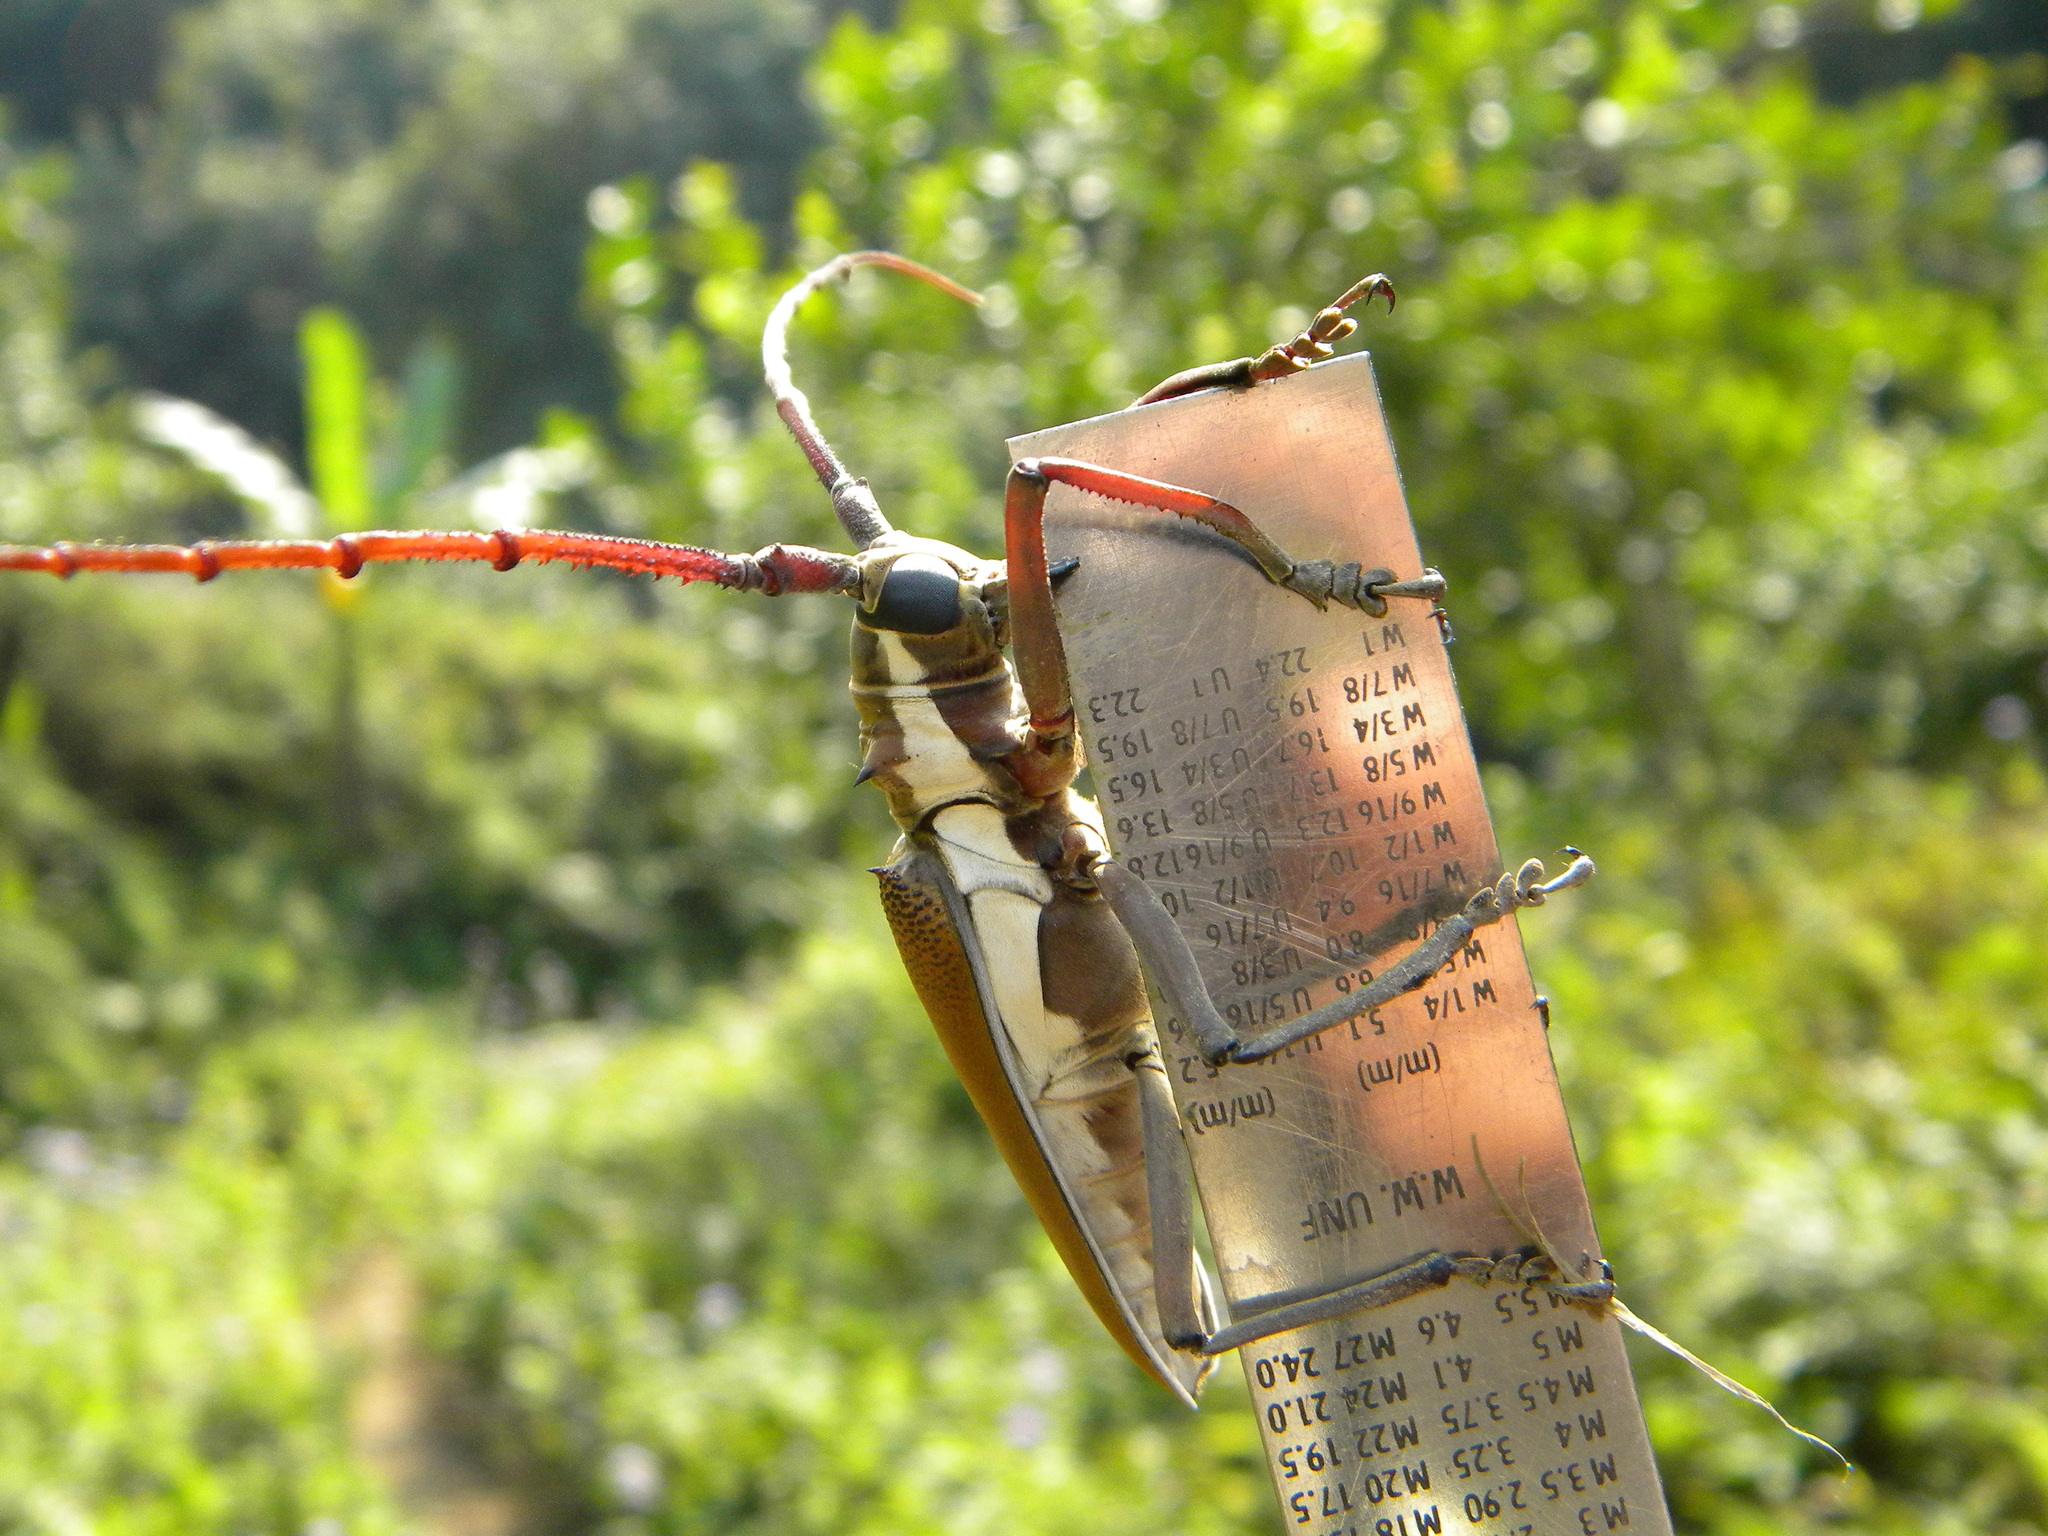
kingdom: Animalia
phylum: Arthropoda
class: Insecta
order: Coleoptera
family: Cerambycidae
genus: Batocera
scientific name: Batocera numitor
